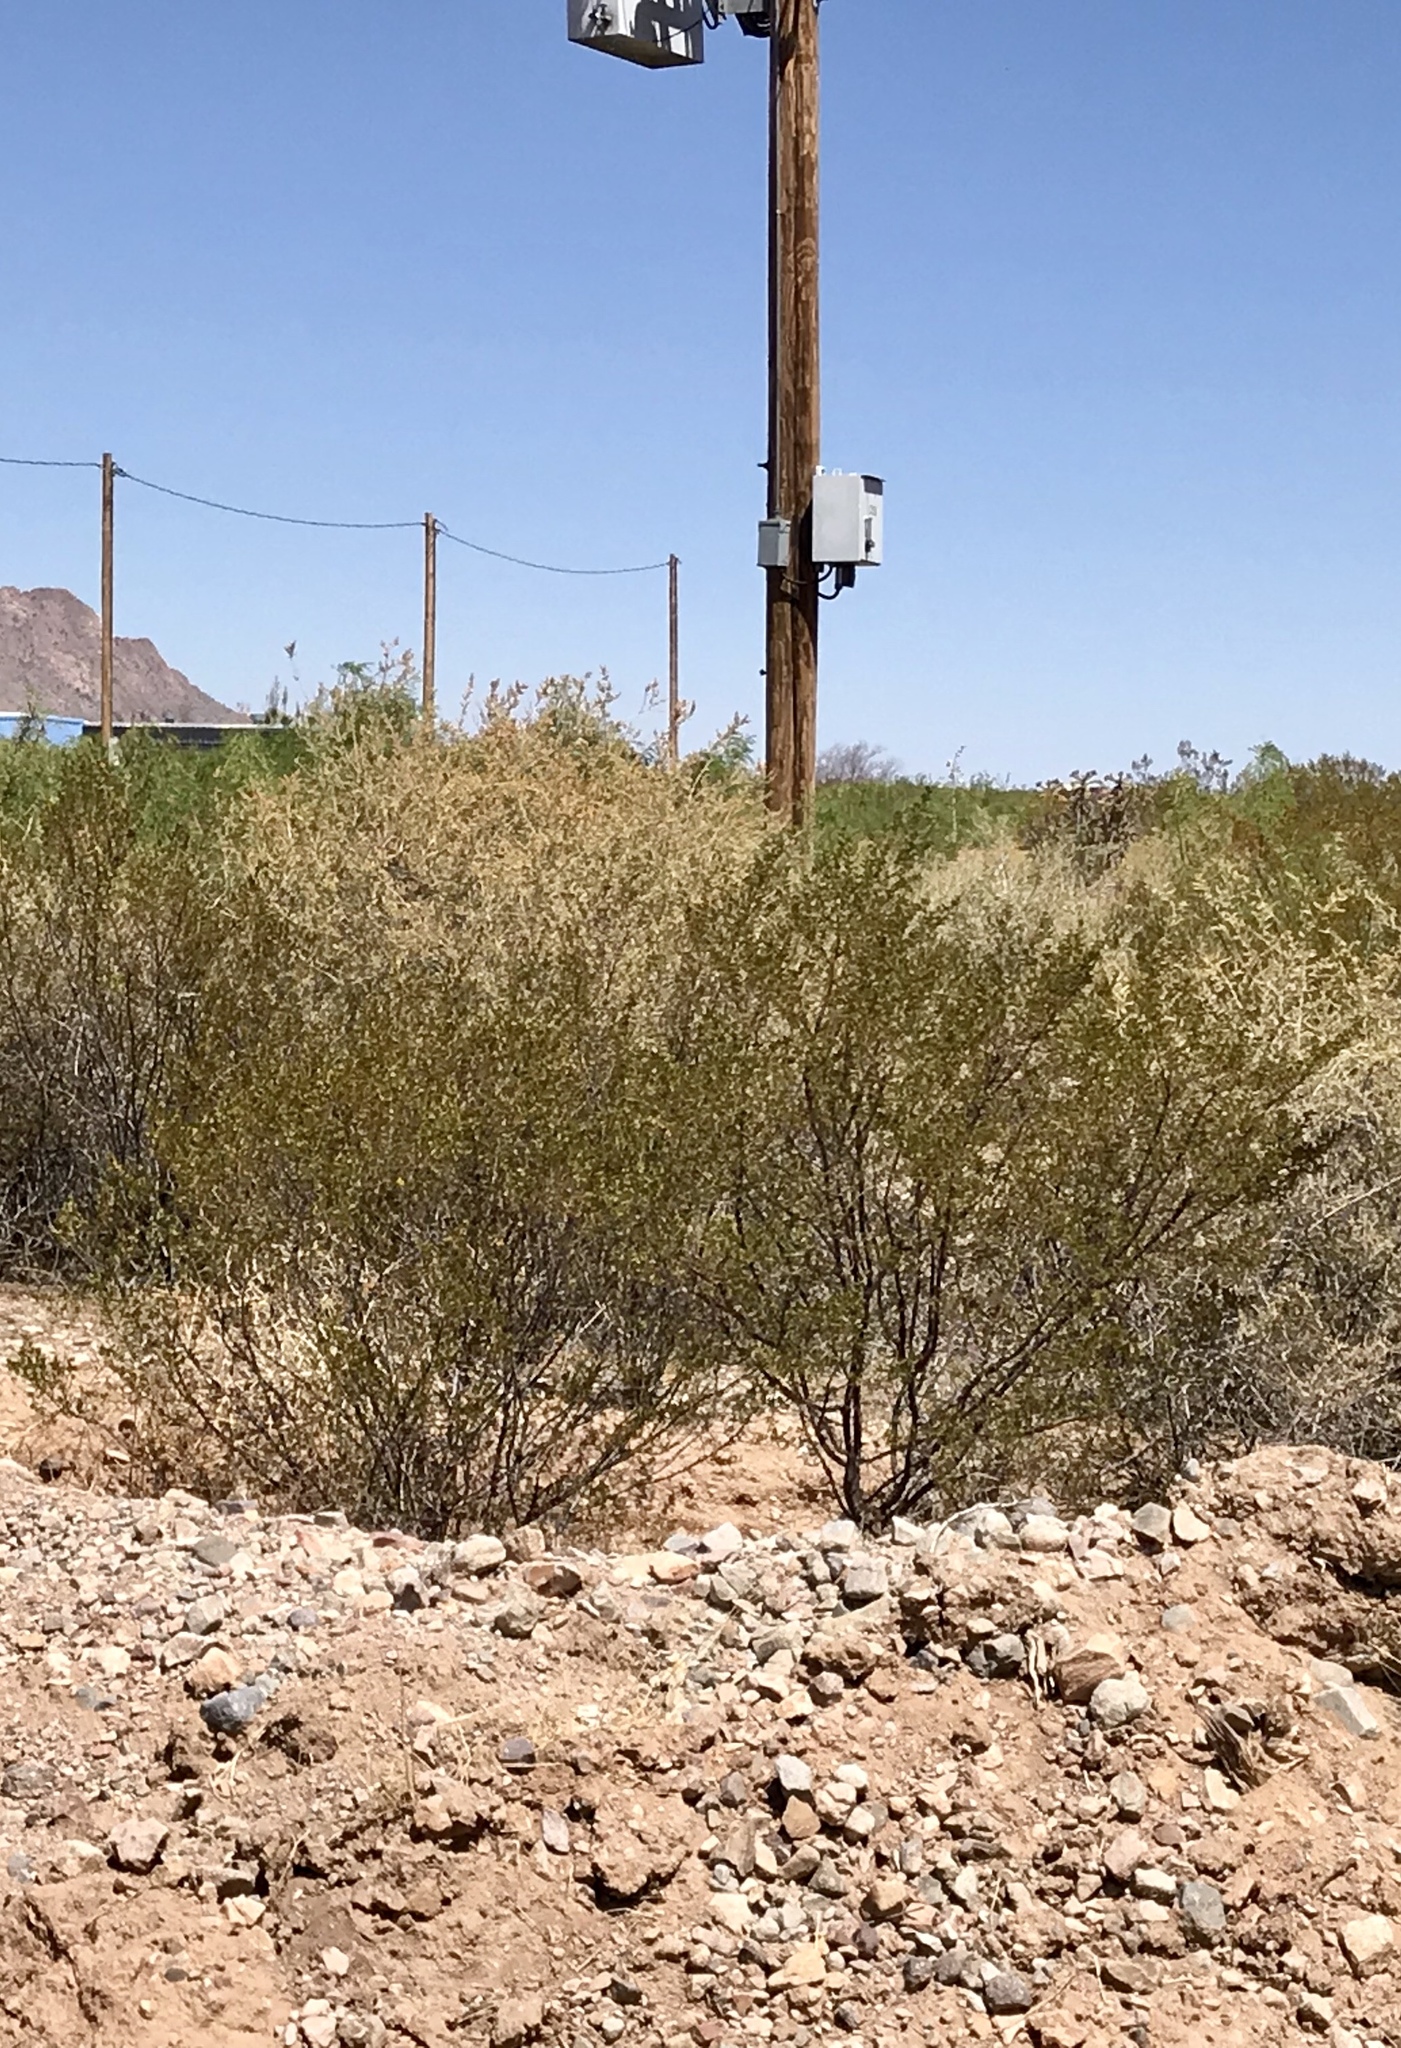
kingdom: Plantae
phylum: Tracheophyta
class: Magnoliopsida
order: Zygophyllales
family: Zygophyllaceae
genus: Larrea
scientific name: Larrea tridentata
